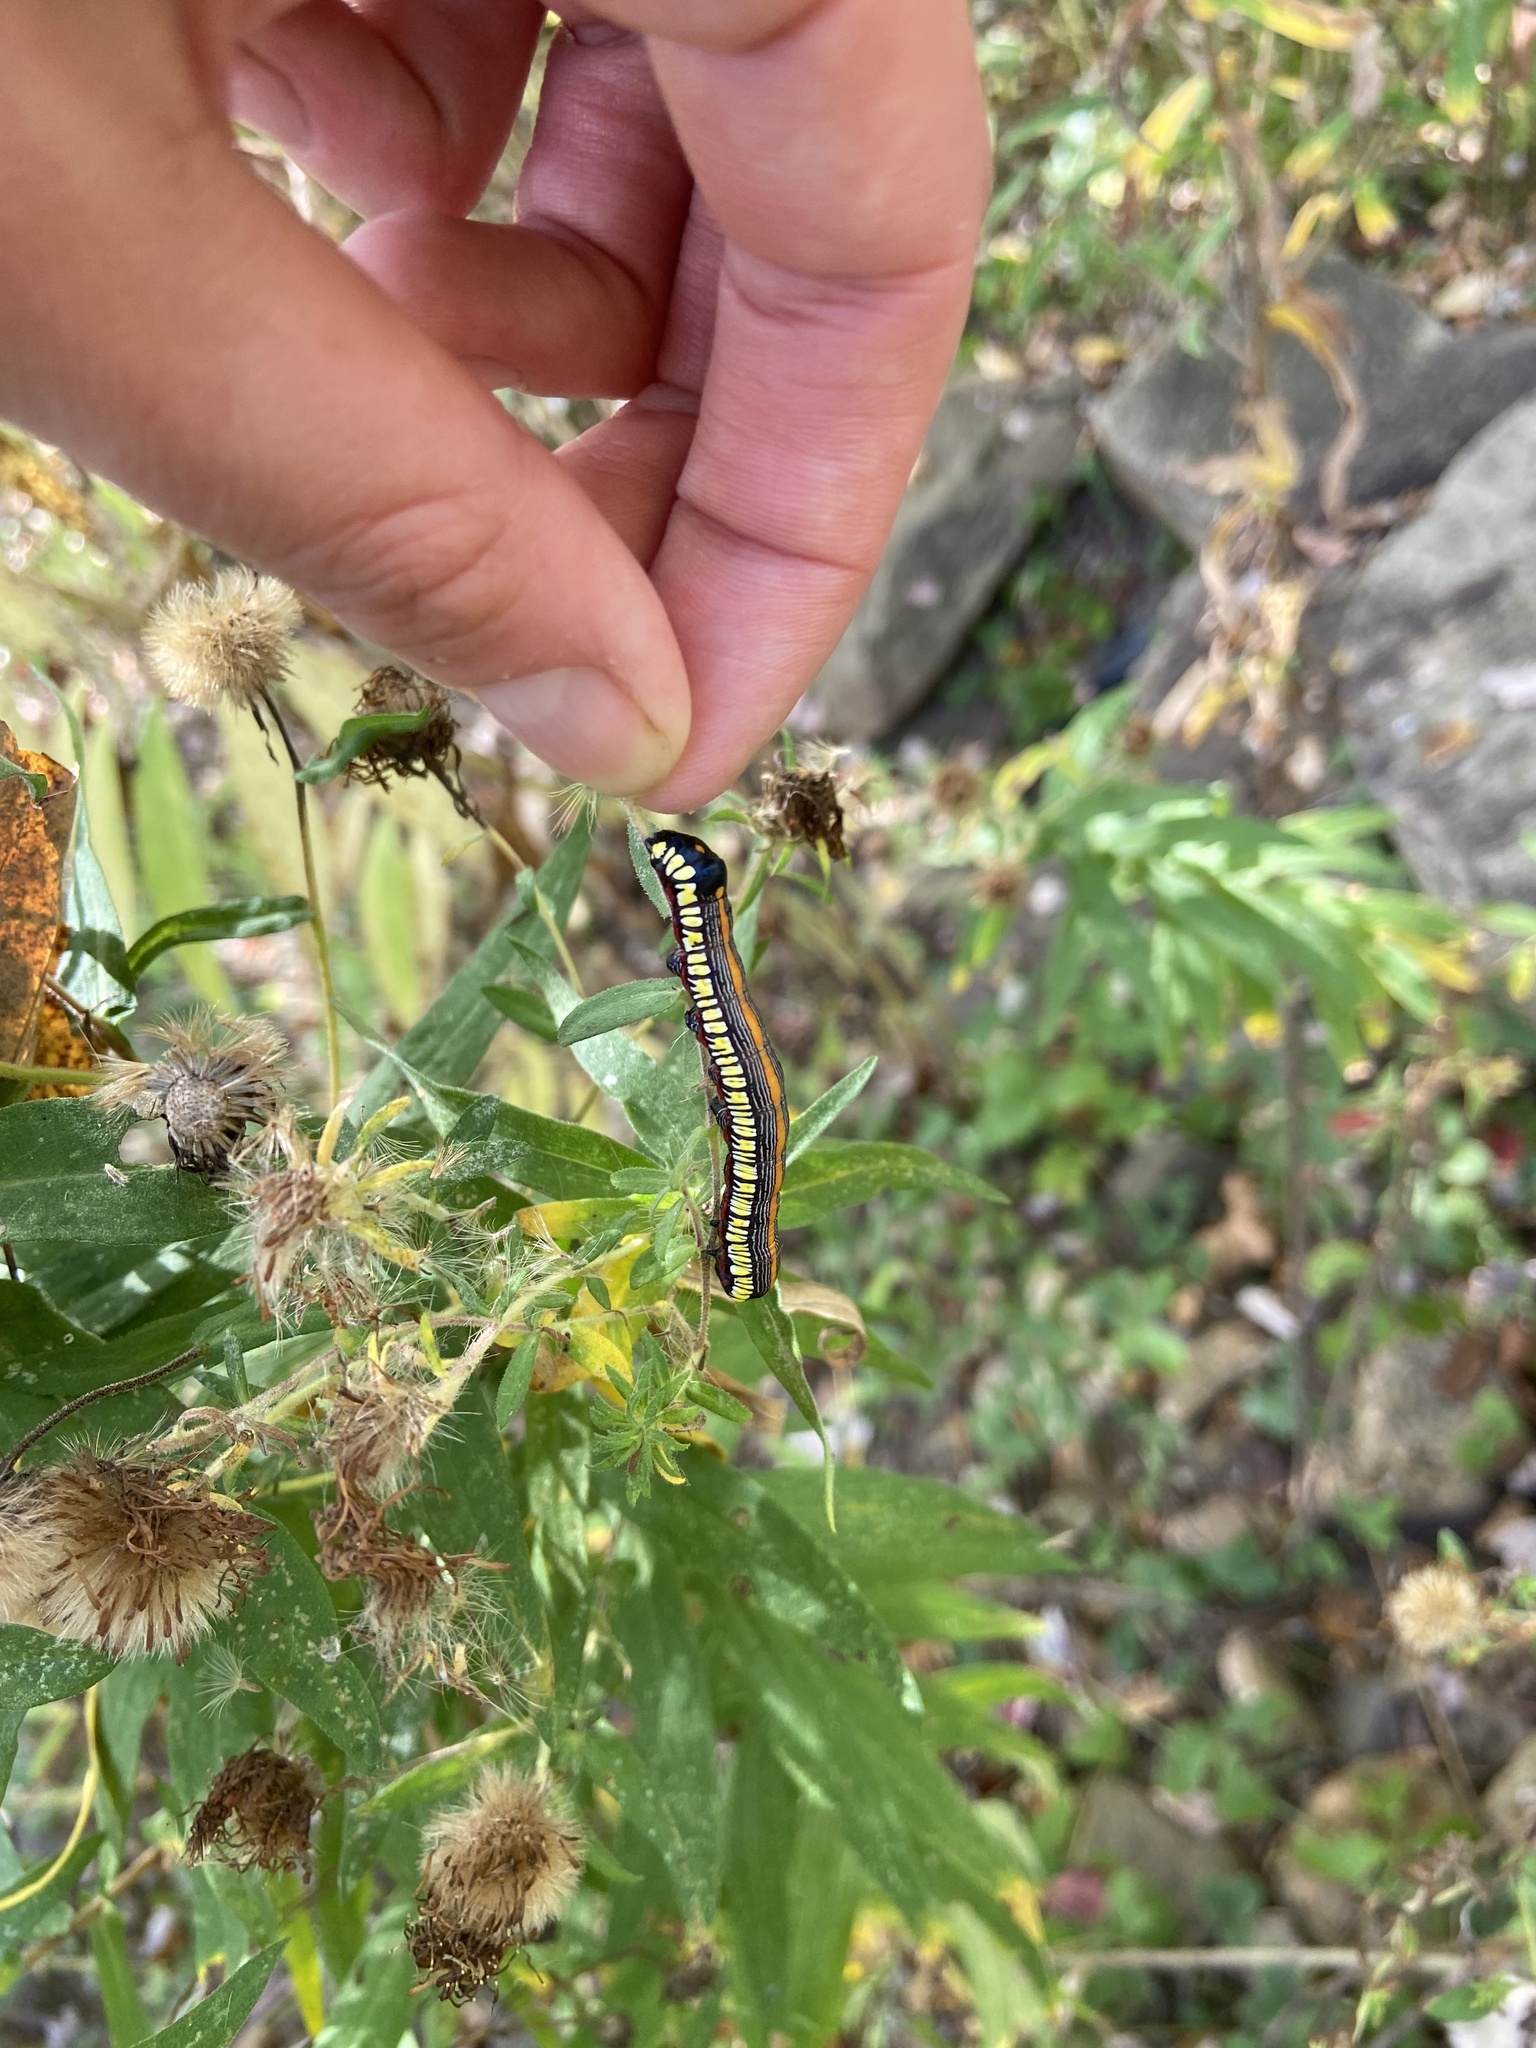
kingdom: Animalia
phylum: Arthropoda
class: Insecta
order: Lepidoptera
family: Noctuidae
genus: Cucullia
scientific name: Cucullia convexipennis
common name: Brown-hooded owlet
